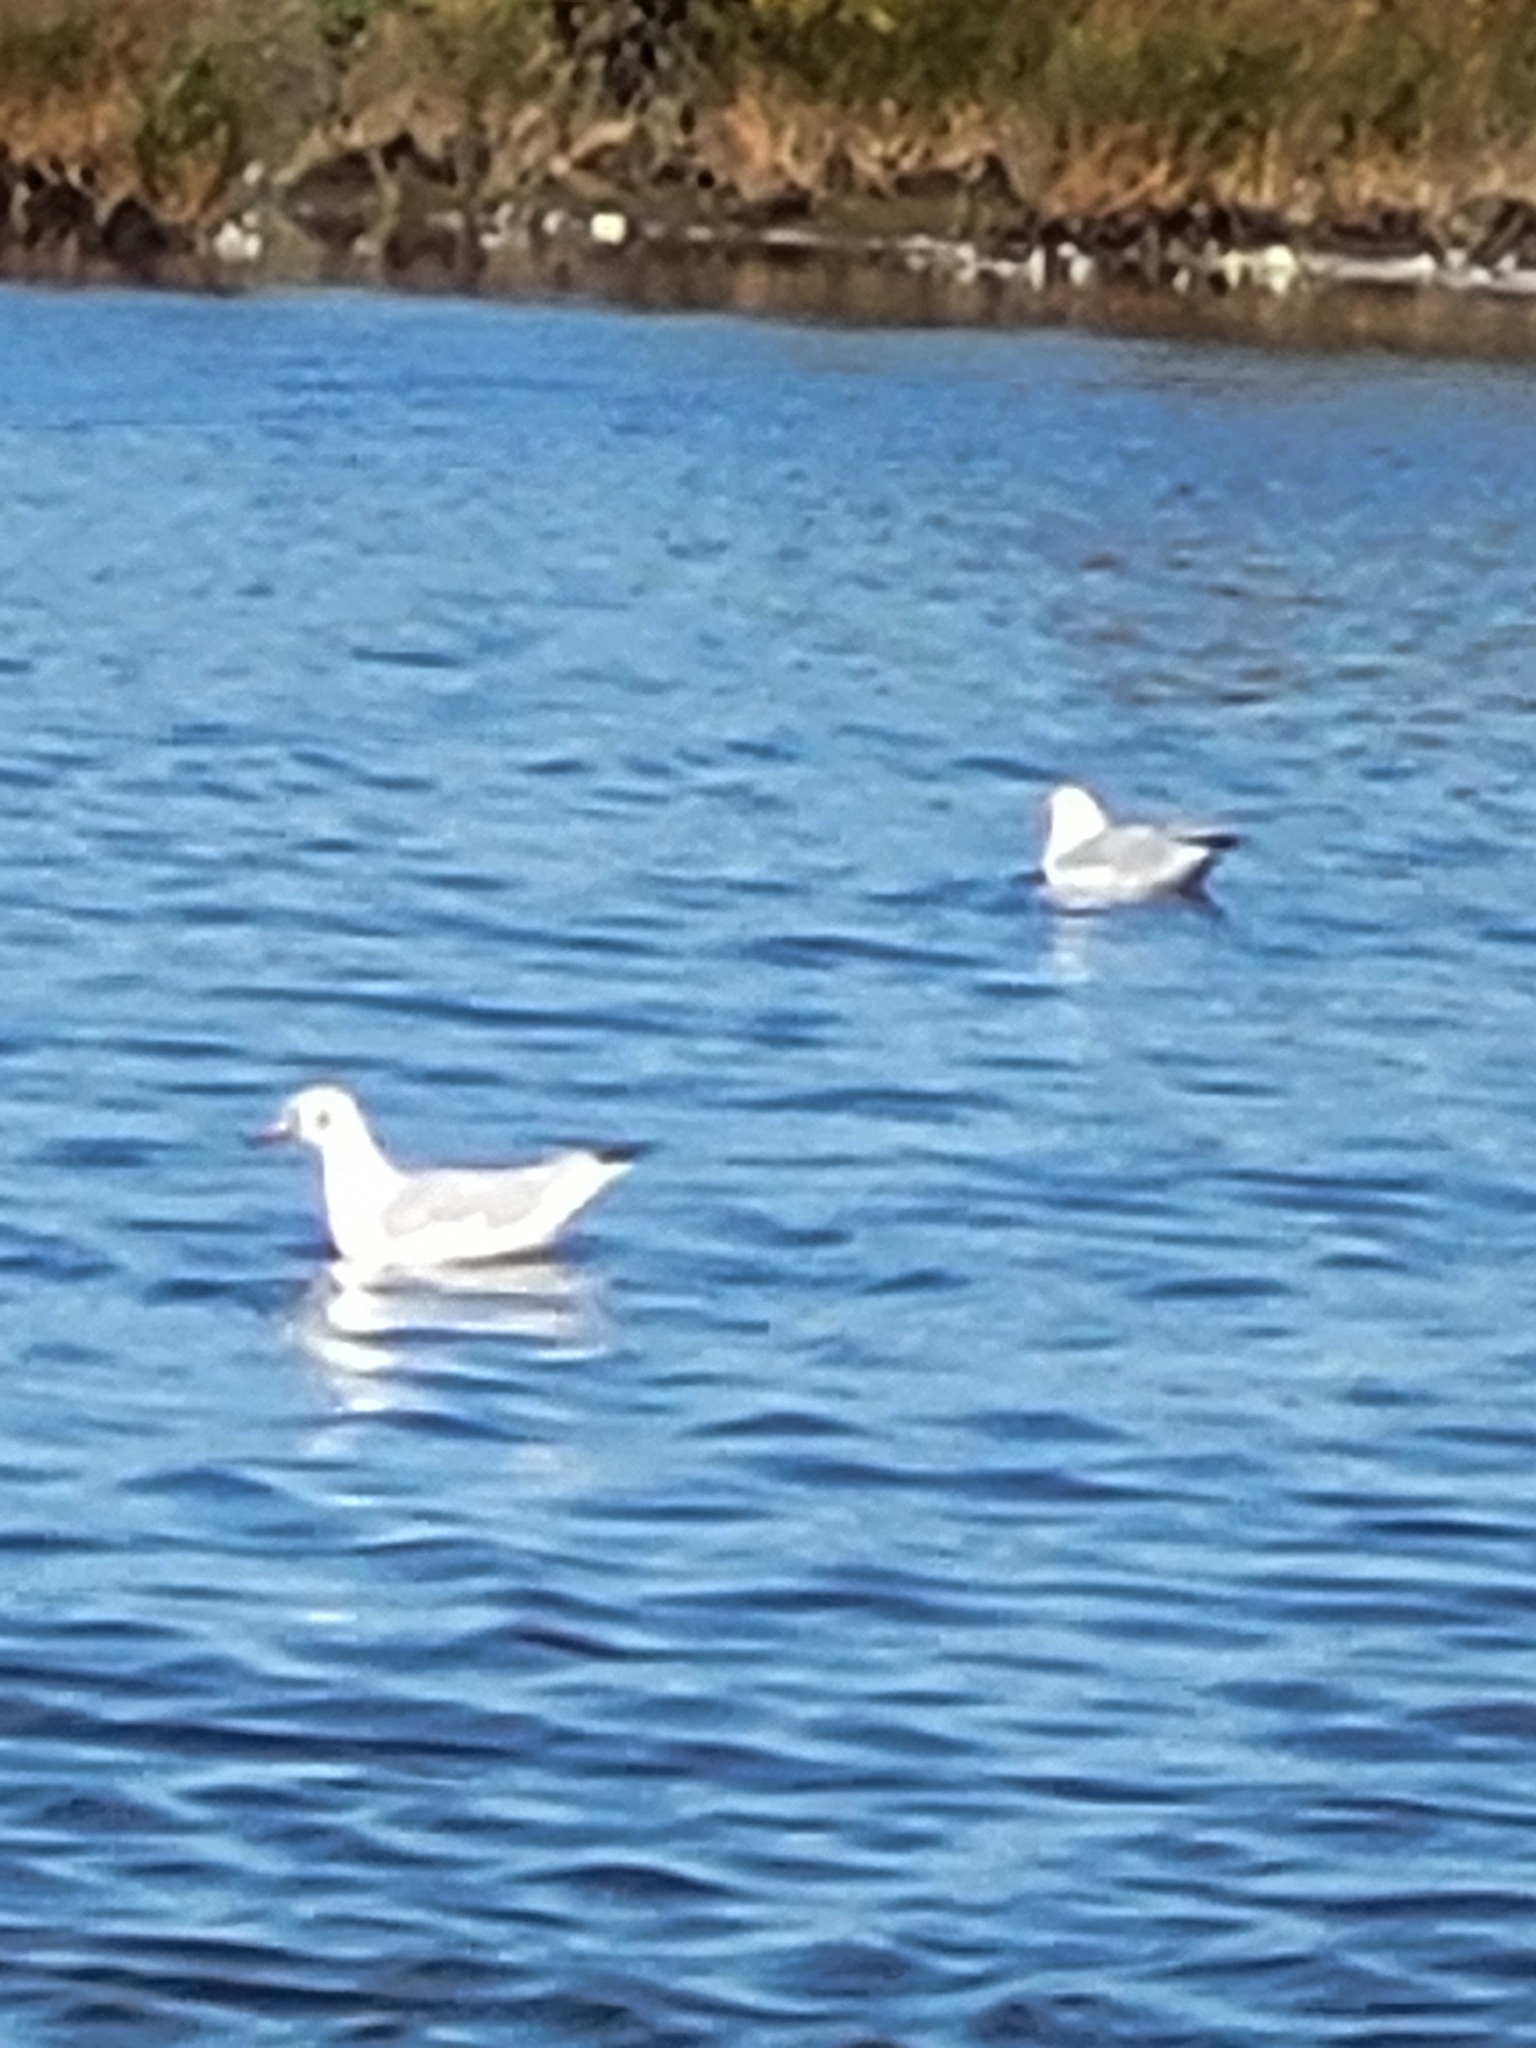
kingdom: Animalia
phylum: Chordata
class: Aves
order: Charadriiformes
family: Laridae
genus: Chroicocephalus
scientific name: Chroicocephalus ridibundus
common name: Black-headed gull
